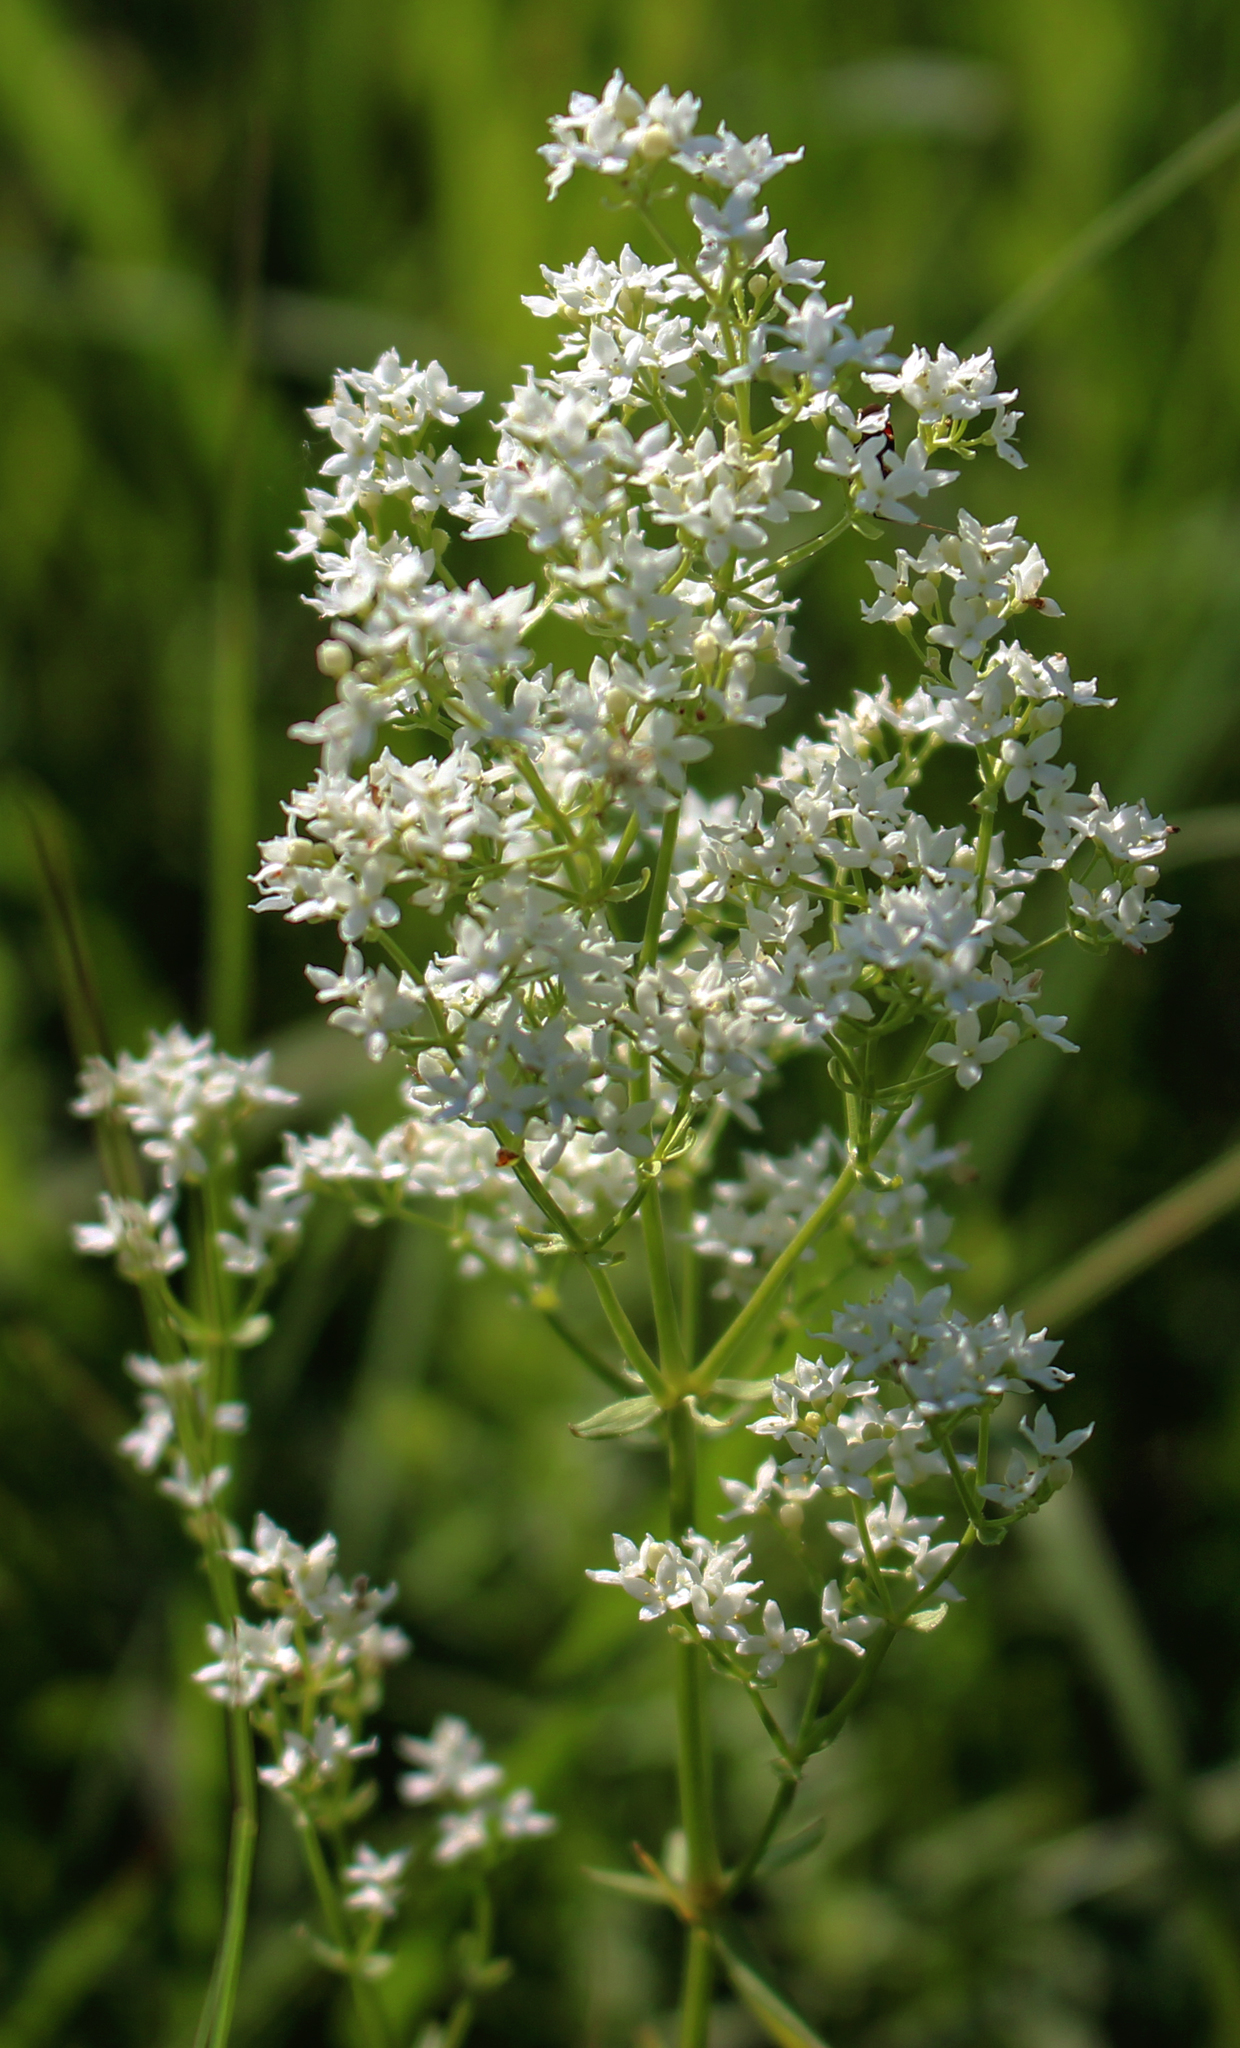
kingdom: Plantae
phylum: Tracheophyta
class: Magnoliopsida
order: Gentianales
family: Rubiaceae
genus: Galium
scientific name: Galium boreale
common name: Northern bedstraw
